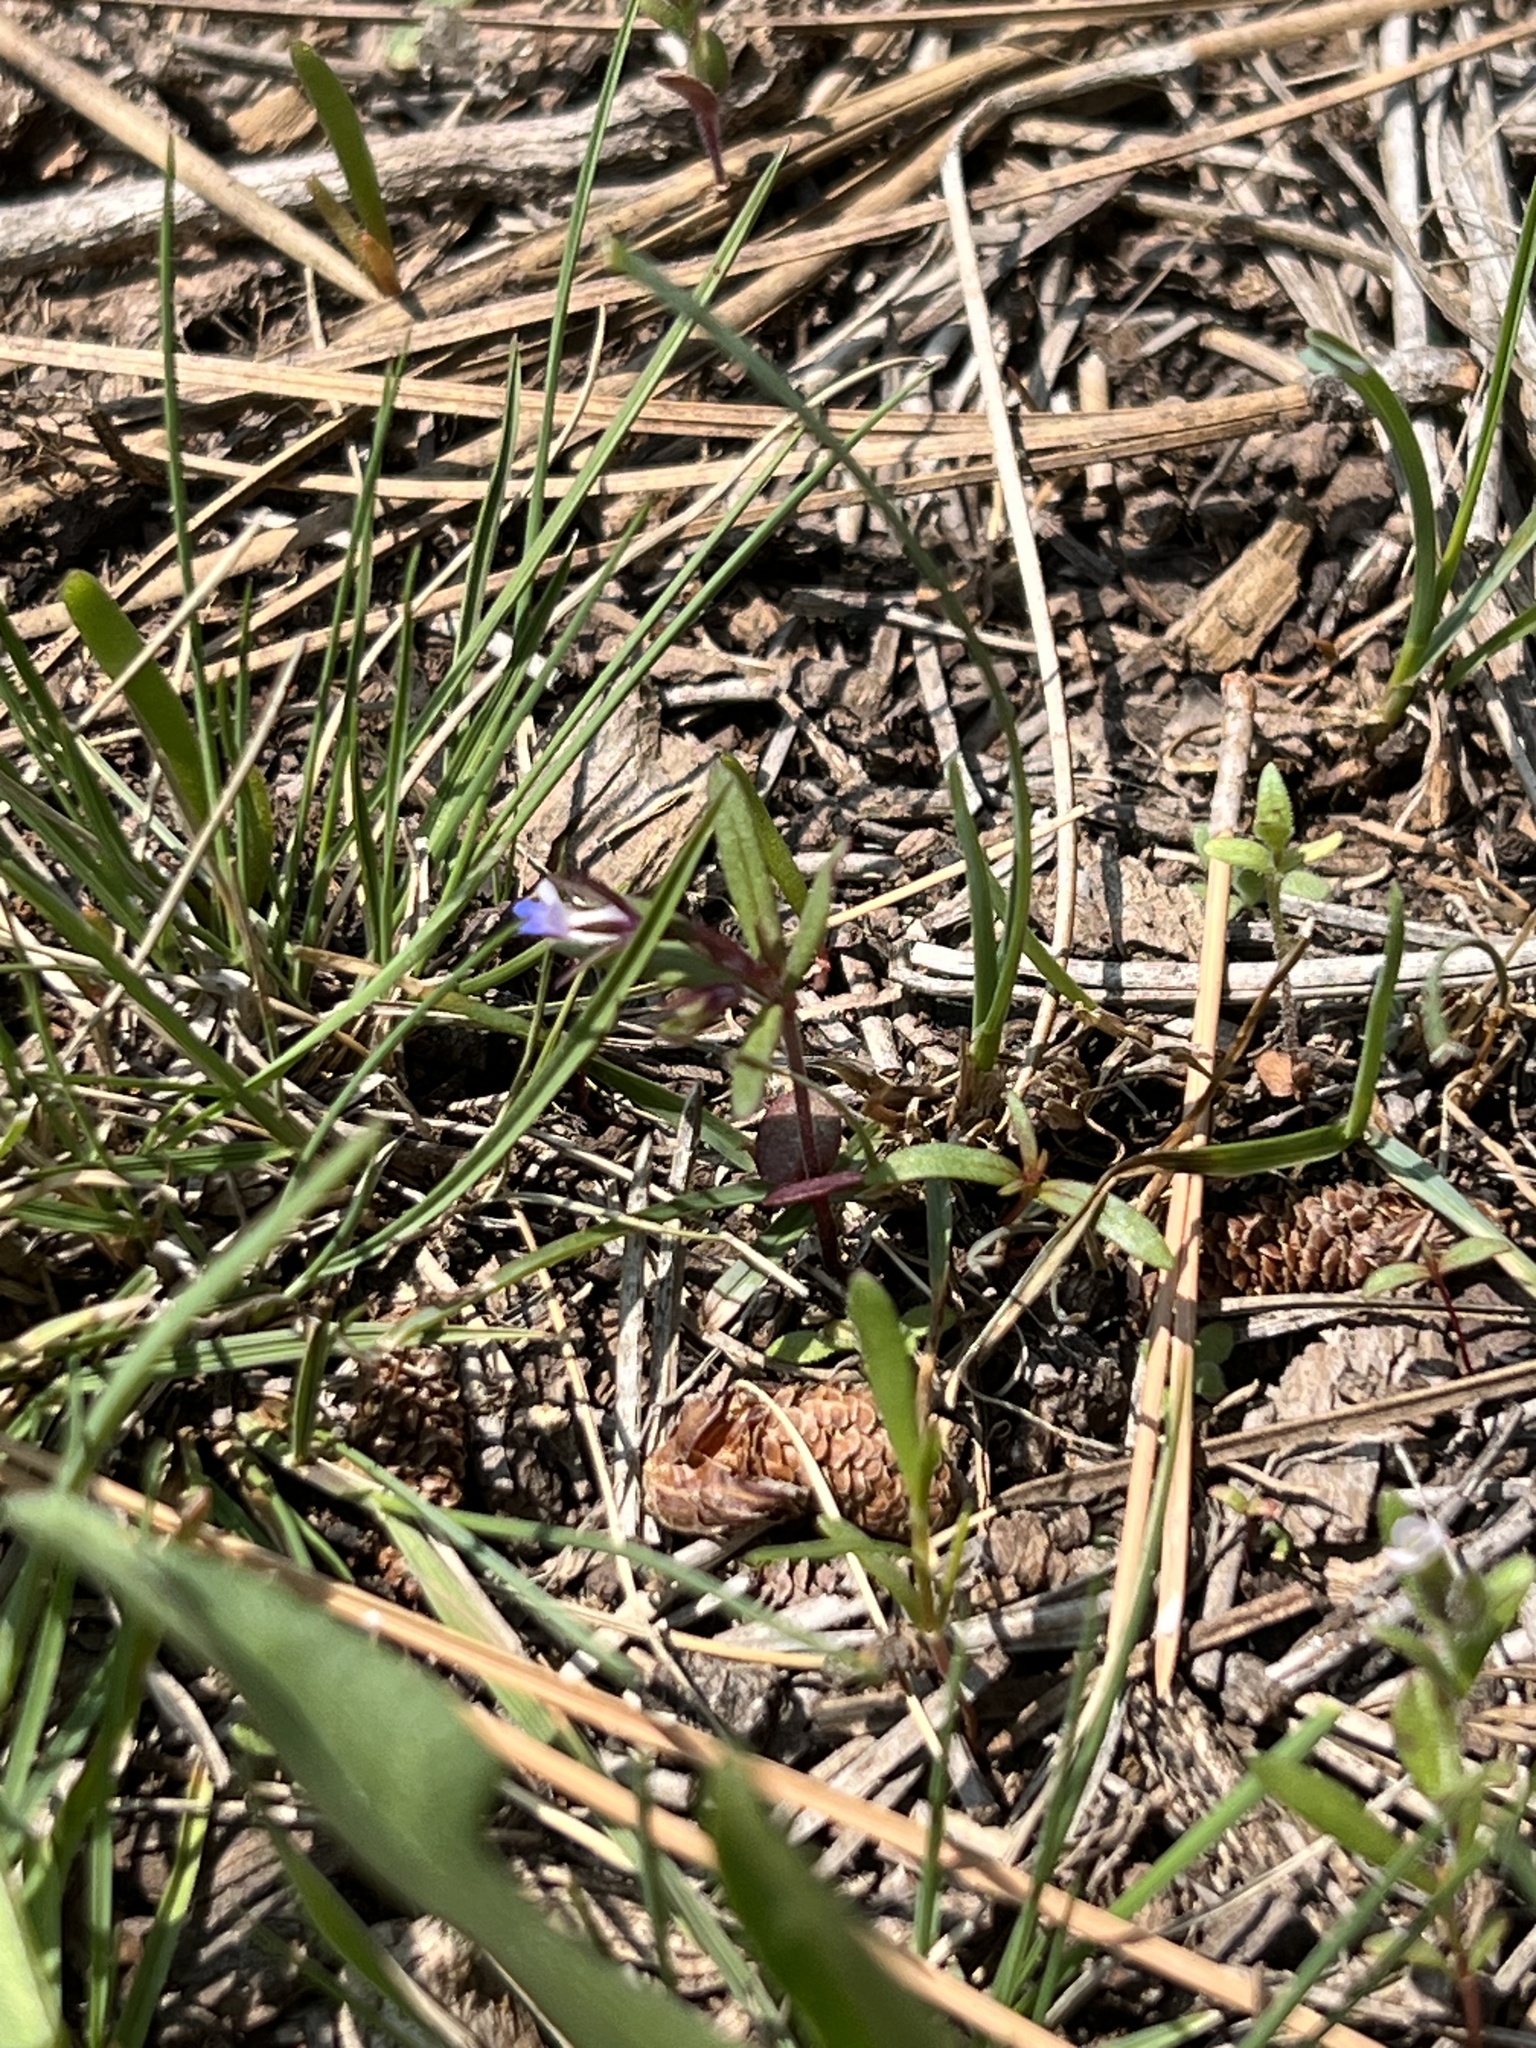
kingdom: Plantae
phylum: Tracheophyta
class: Magnoliopsida
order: Lamiales
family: Plantaginaceae
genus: Collinsia
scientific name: Collinsia parviflora
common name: Blue-lips
